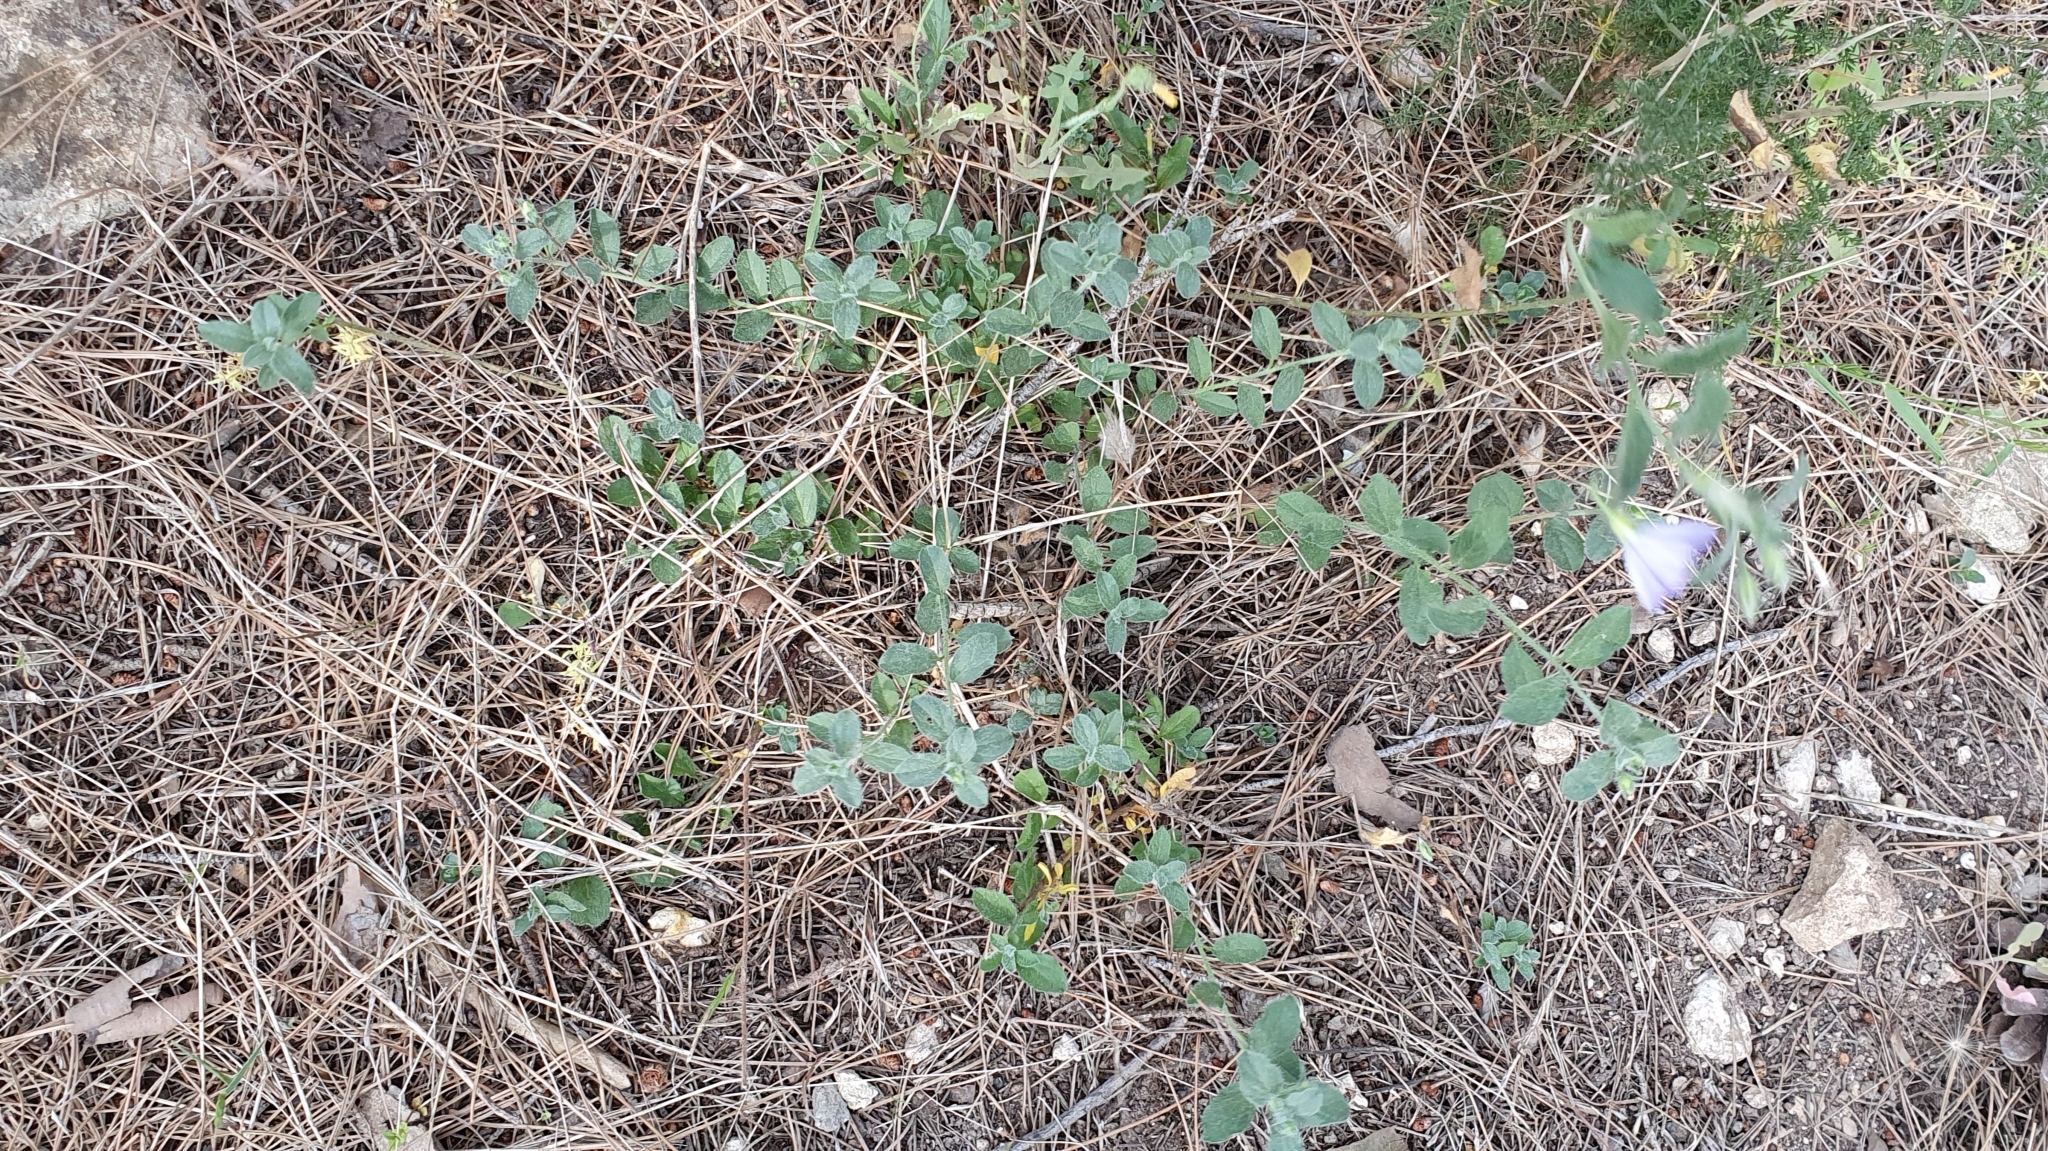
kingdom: Plantae
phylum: Tracheophyta
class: Magnoliopsida
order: Solanales
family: Convolvulaceae
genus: Convolvulus
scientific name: Convolvulus sabatius
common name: Ground blue-convolvulus
